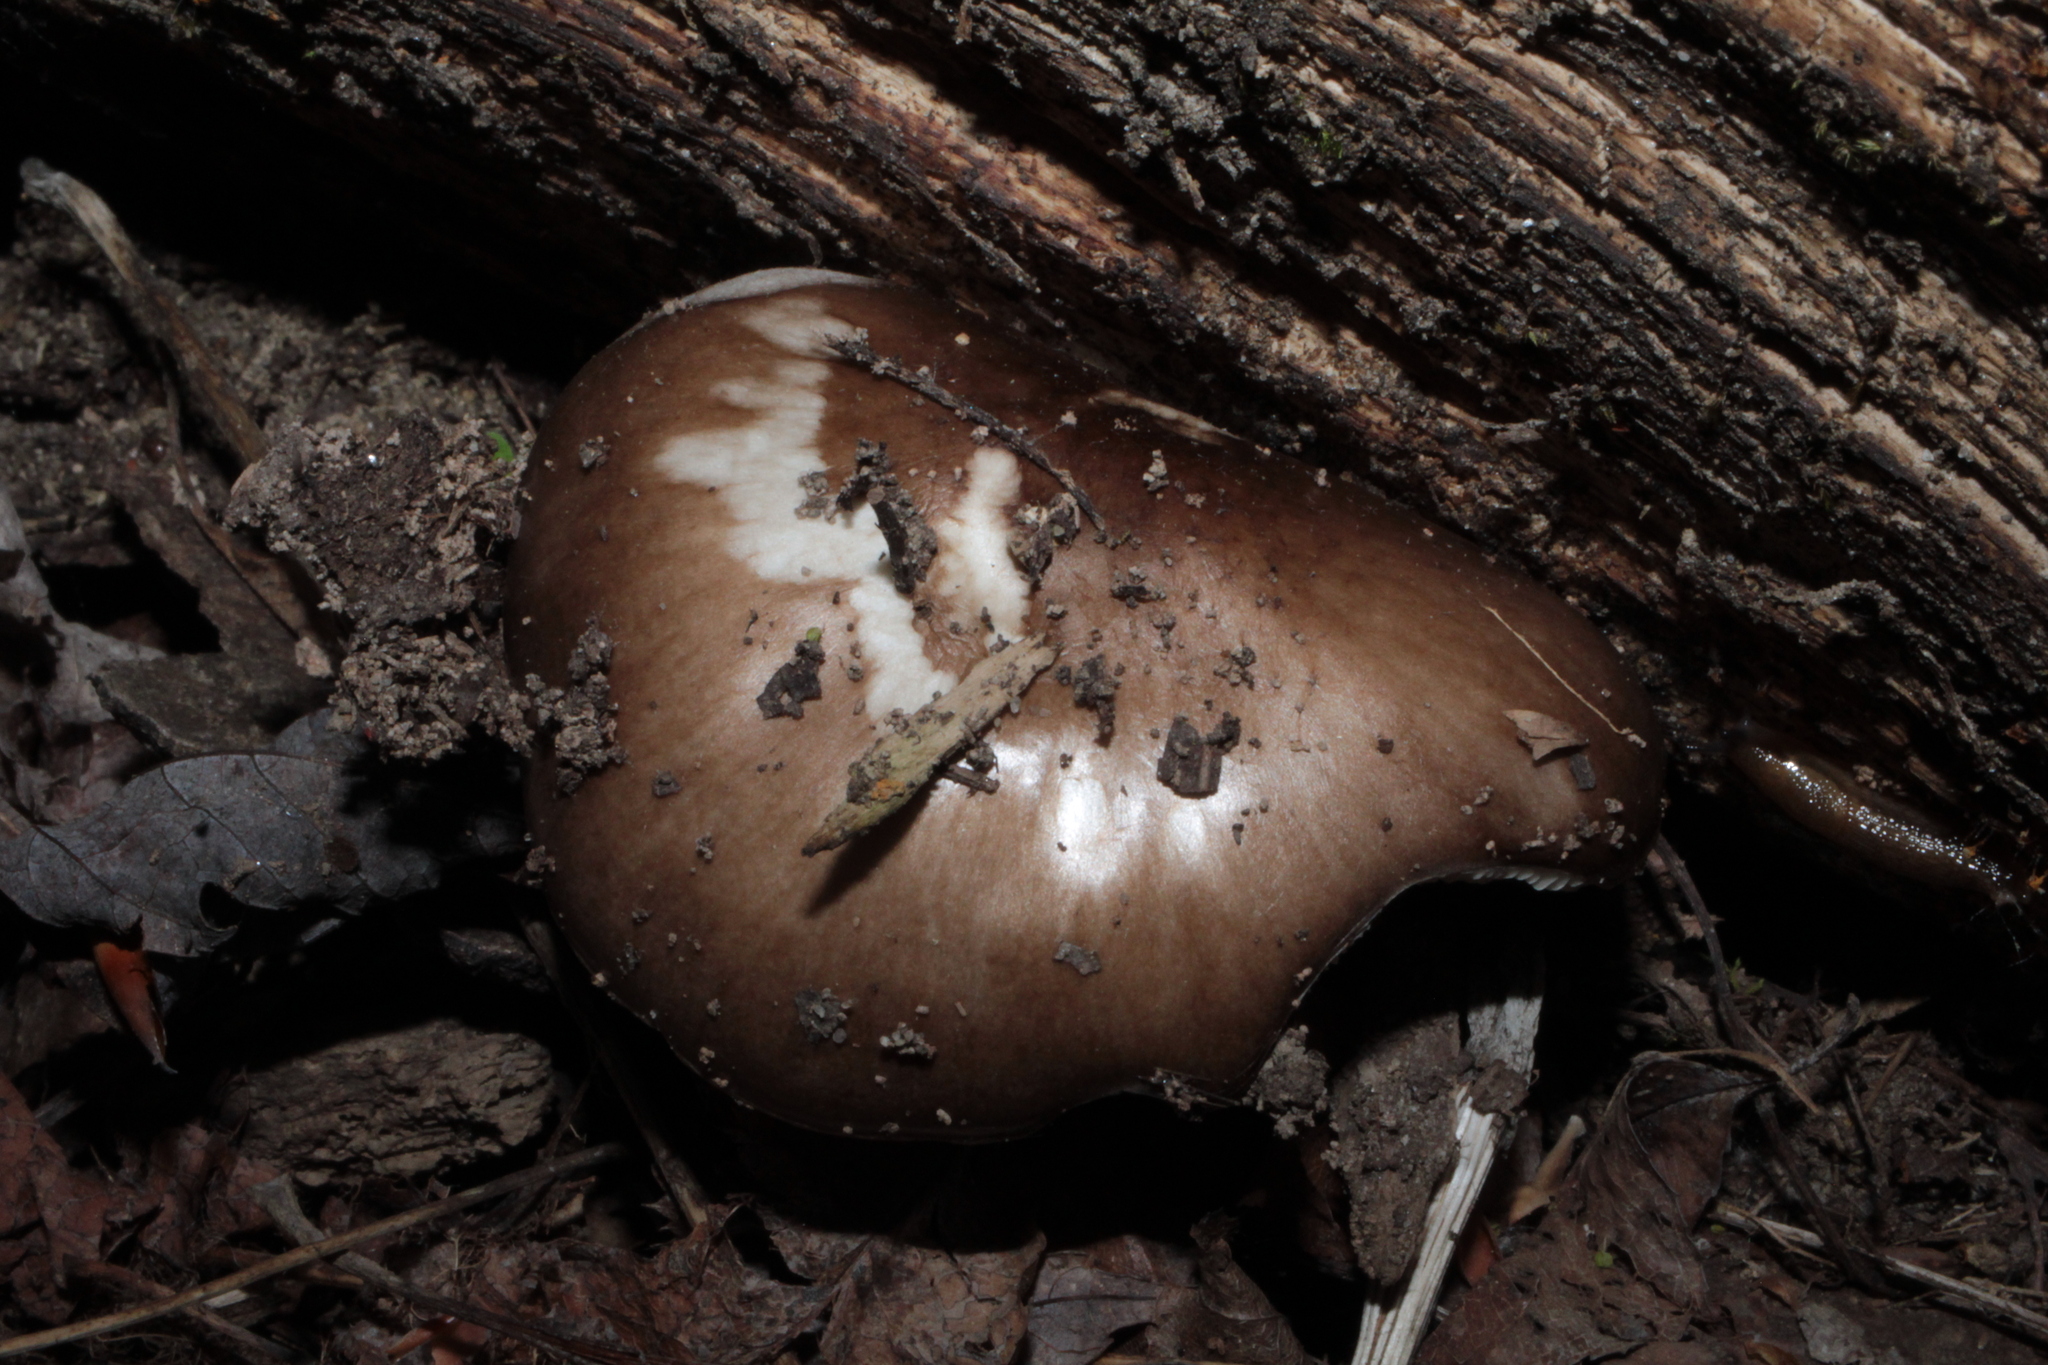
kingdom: Fungi
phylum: Basidiomycota
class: Agaricomycetes
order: Agaricales
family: Pluteaceae
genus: Pluteus
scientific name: Pluteus cervinus
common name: Deer shield
